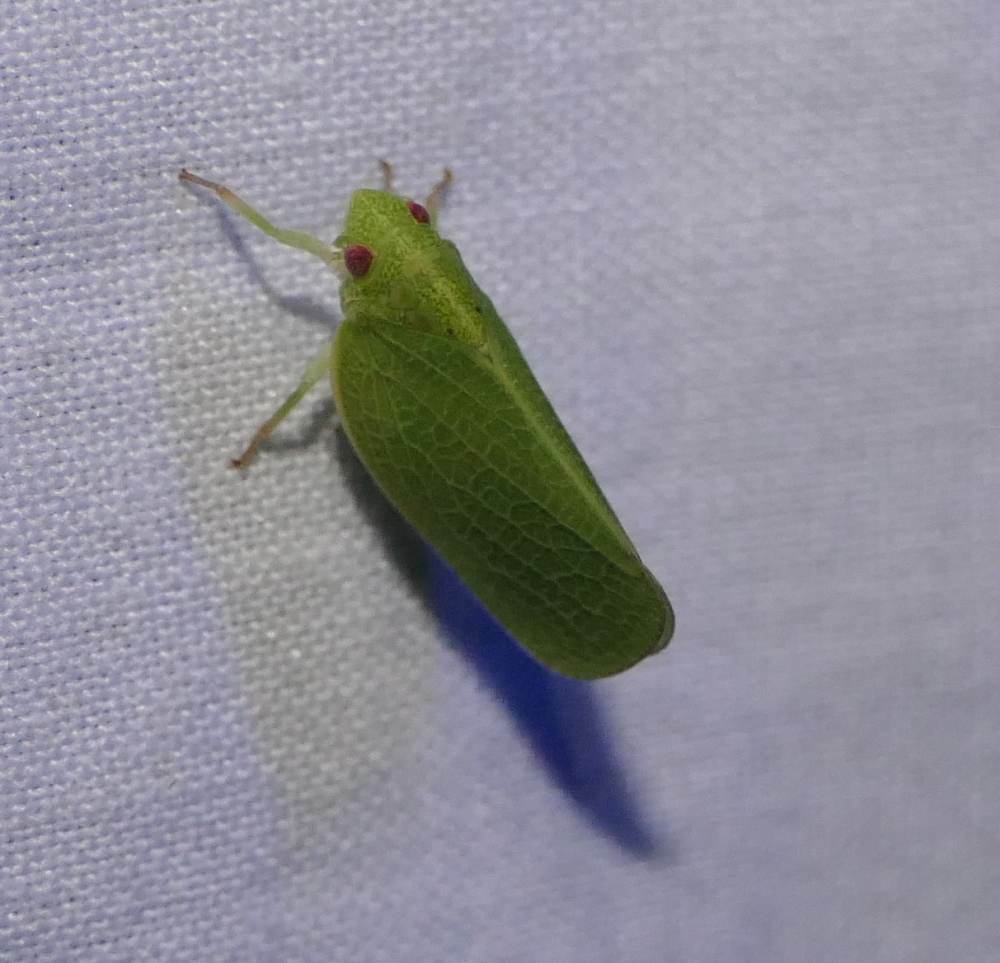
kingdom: Animalia
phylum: Arthropoda
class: Insecta
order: Hemiptera
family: Acanaloniidae
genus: Acanalonia
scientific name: Acanalonia conica
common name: Green cone-headed planthopper
